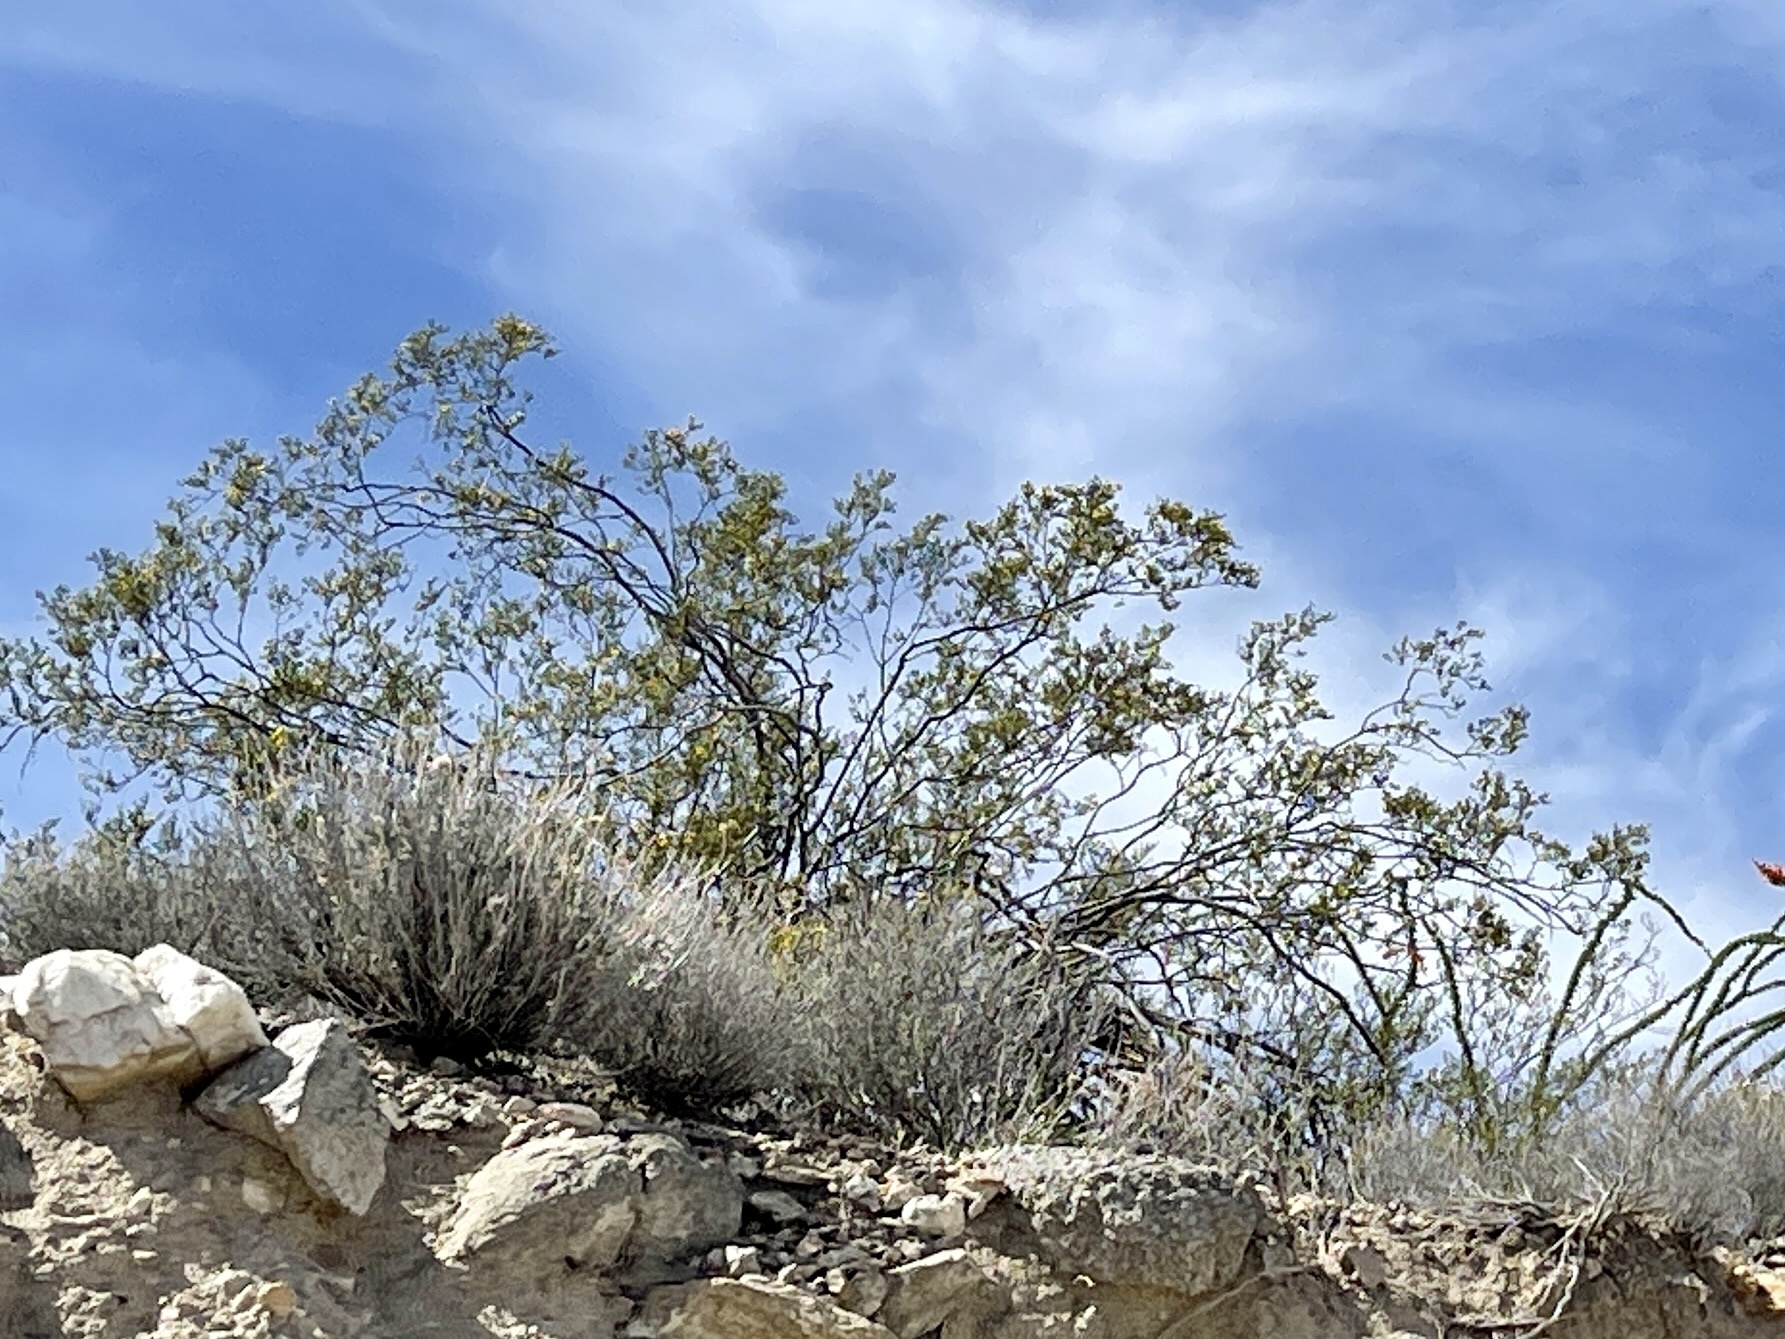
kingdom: Plantae
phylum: Tracheophyta
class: Magnoliopsida
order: Zygophyllales
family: Zygophyllaceae
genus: Larrea
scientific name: Larrea tridentata
